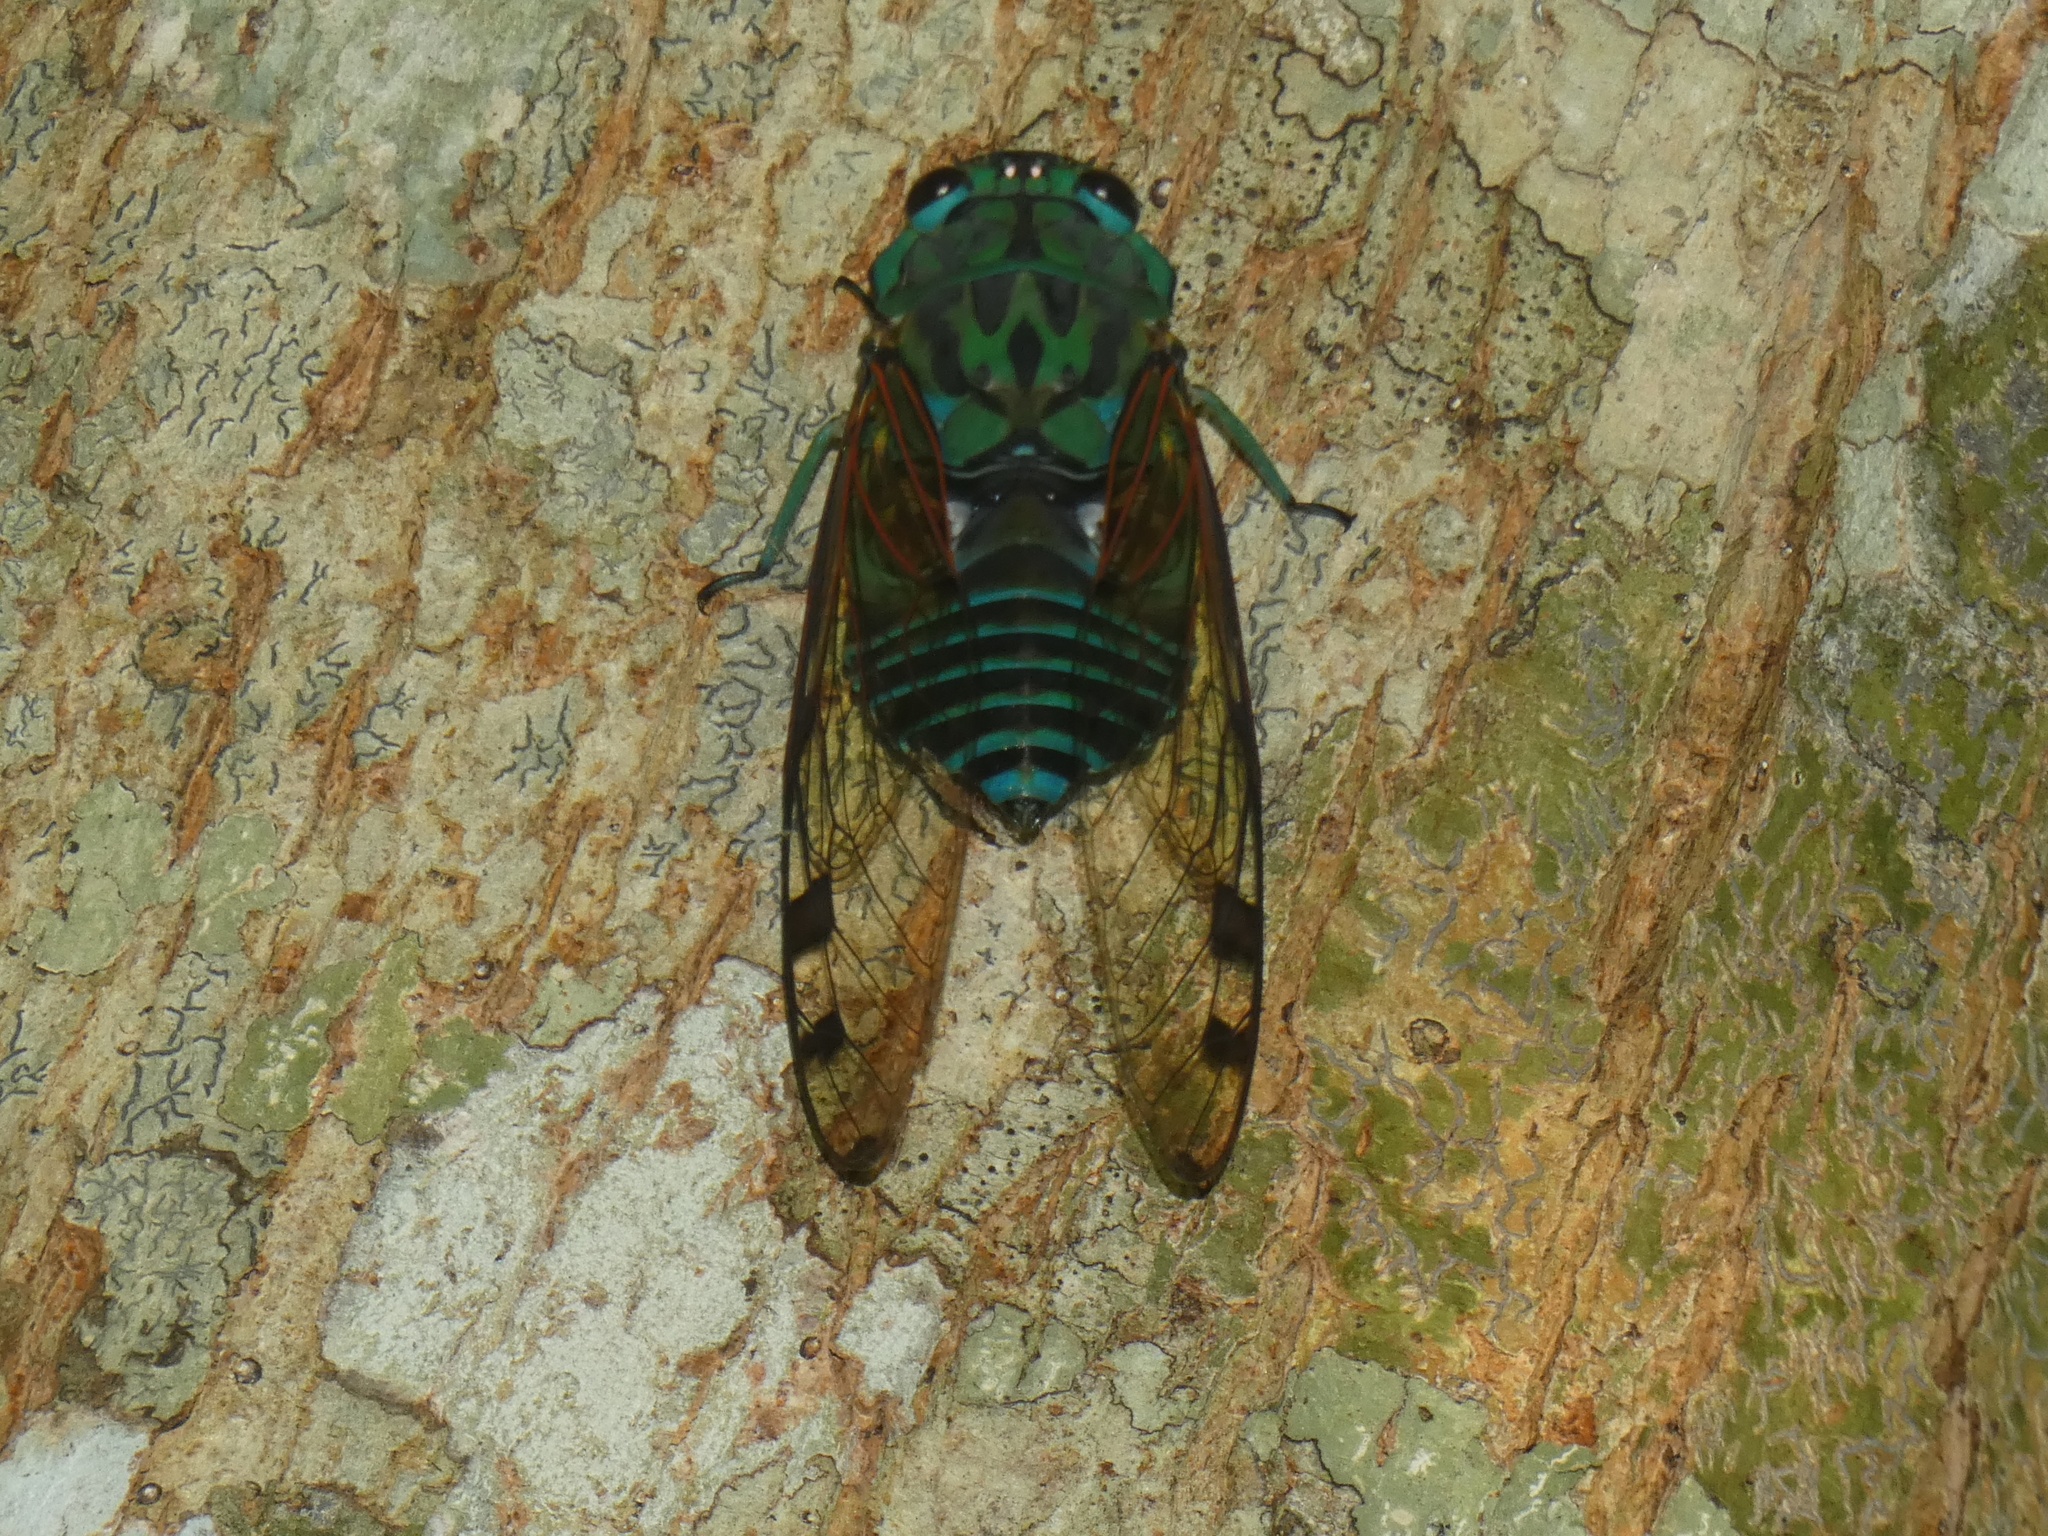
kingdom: Animalia
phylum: Arthropoda
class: Insecta
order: Hemiptera
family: Cicadidae
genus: Zammara
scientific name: Zammara smaragdula
